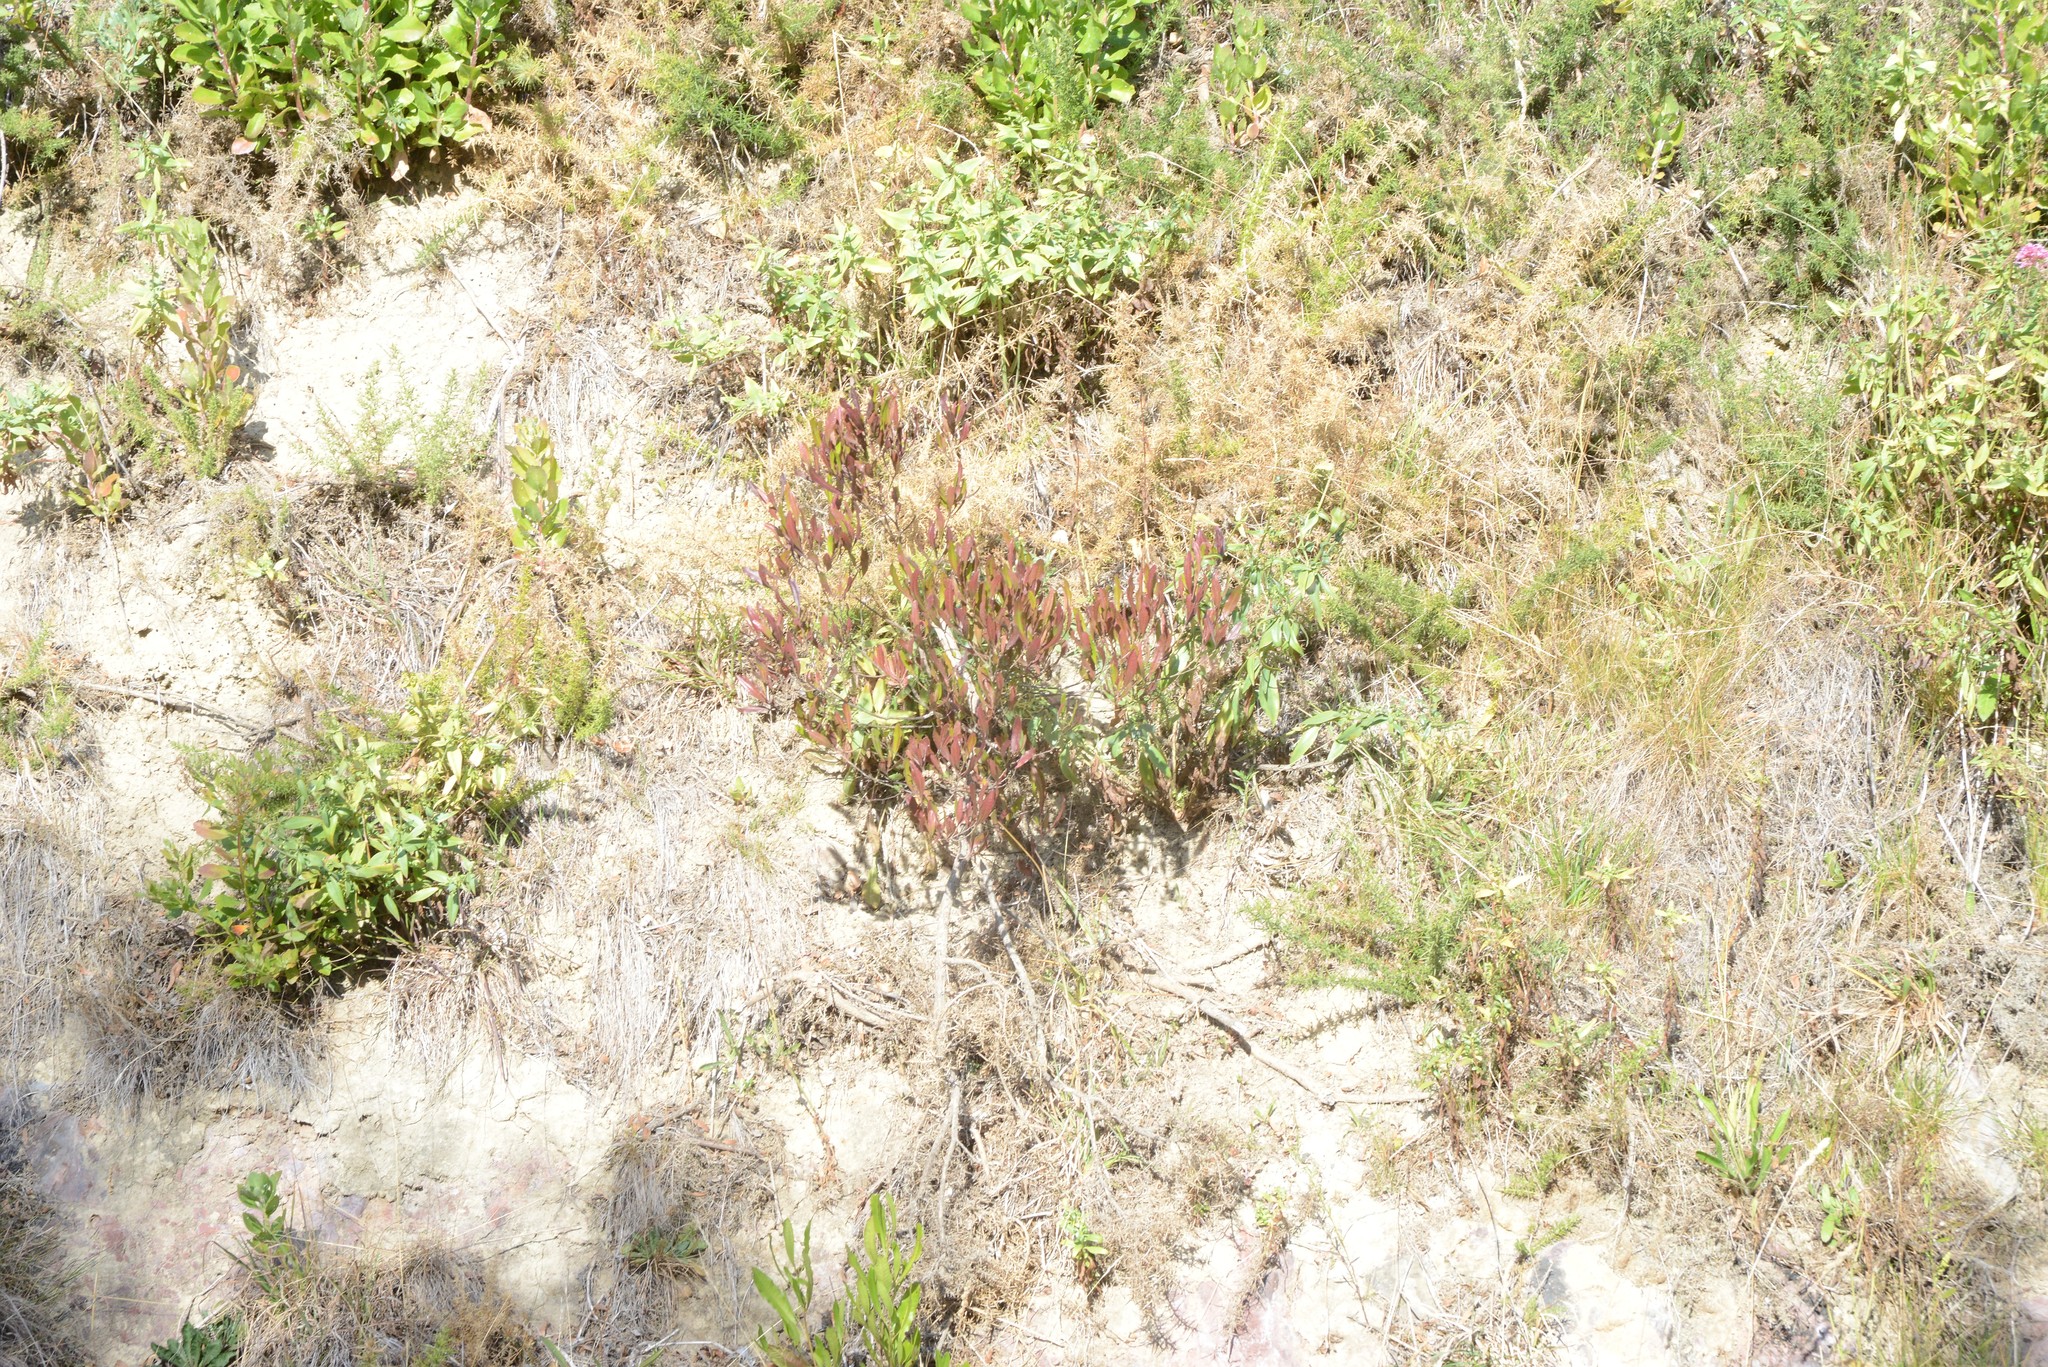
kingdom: Plantae
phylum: Tracheophyta
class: Magnoliopsida
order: Sapindales
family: Sapindaceae
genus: Dodonaea
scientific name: Dodonaea viscosa
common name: Hopbush
